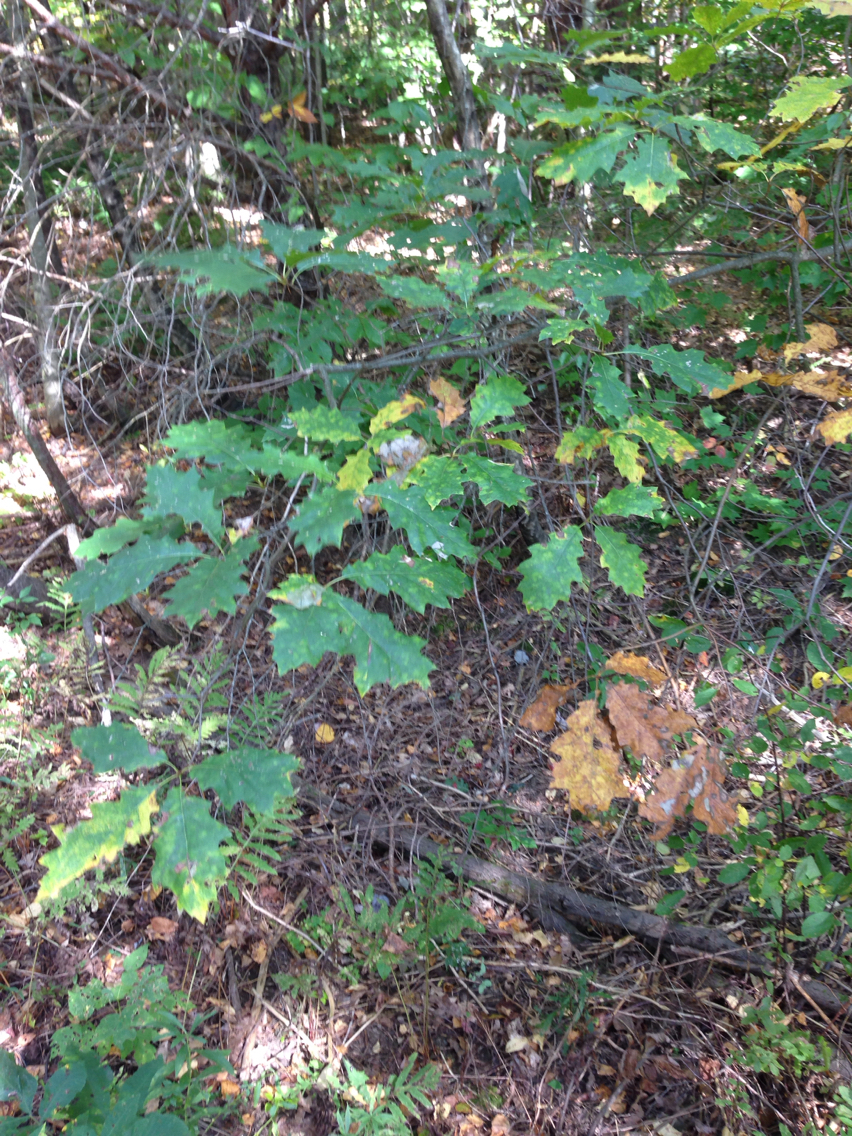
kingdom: Plantae
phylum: Tracheophyta
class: Magnoliopsida
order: Fagales
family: Fagaceae
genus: Quercus
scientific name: Quercus rubra
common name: Red oak
